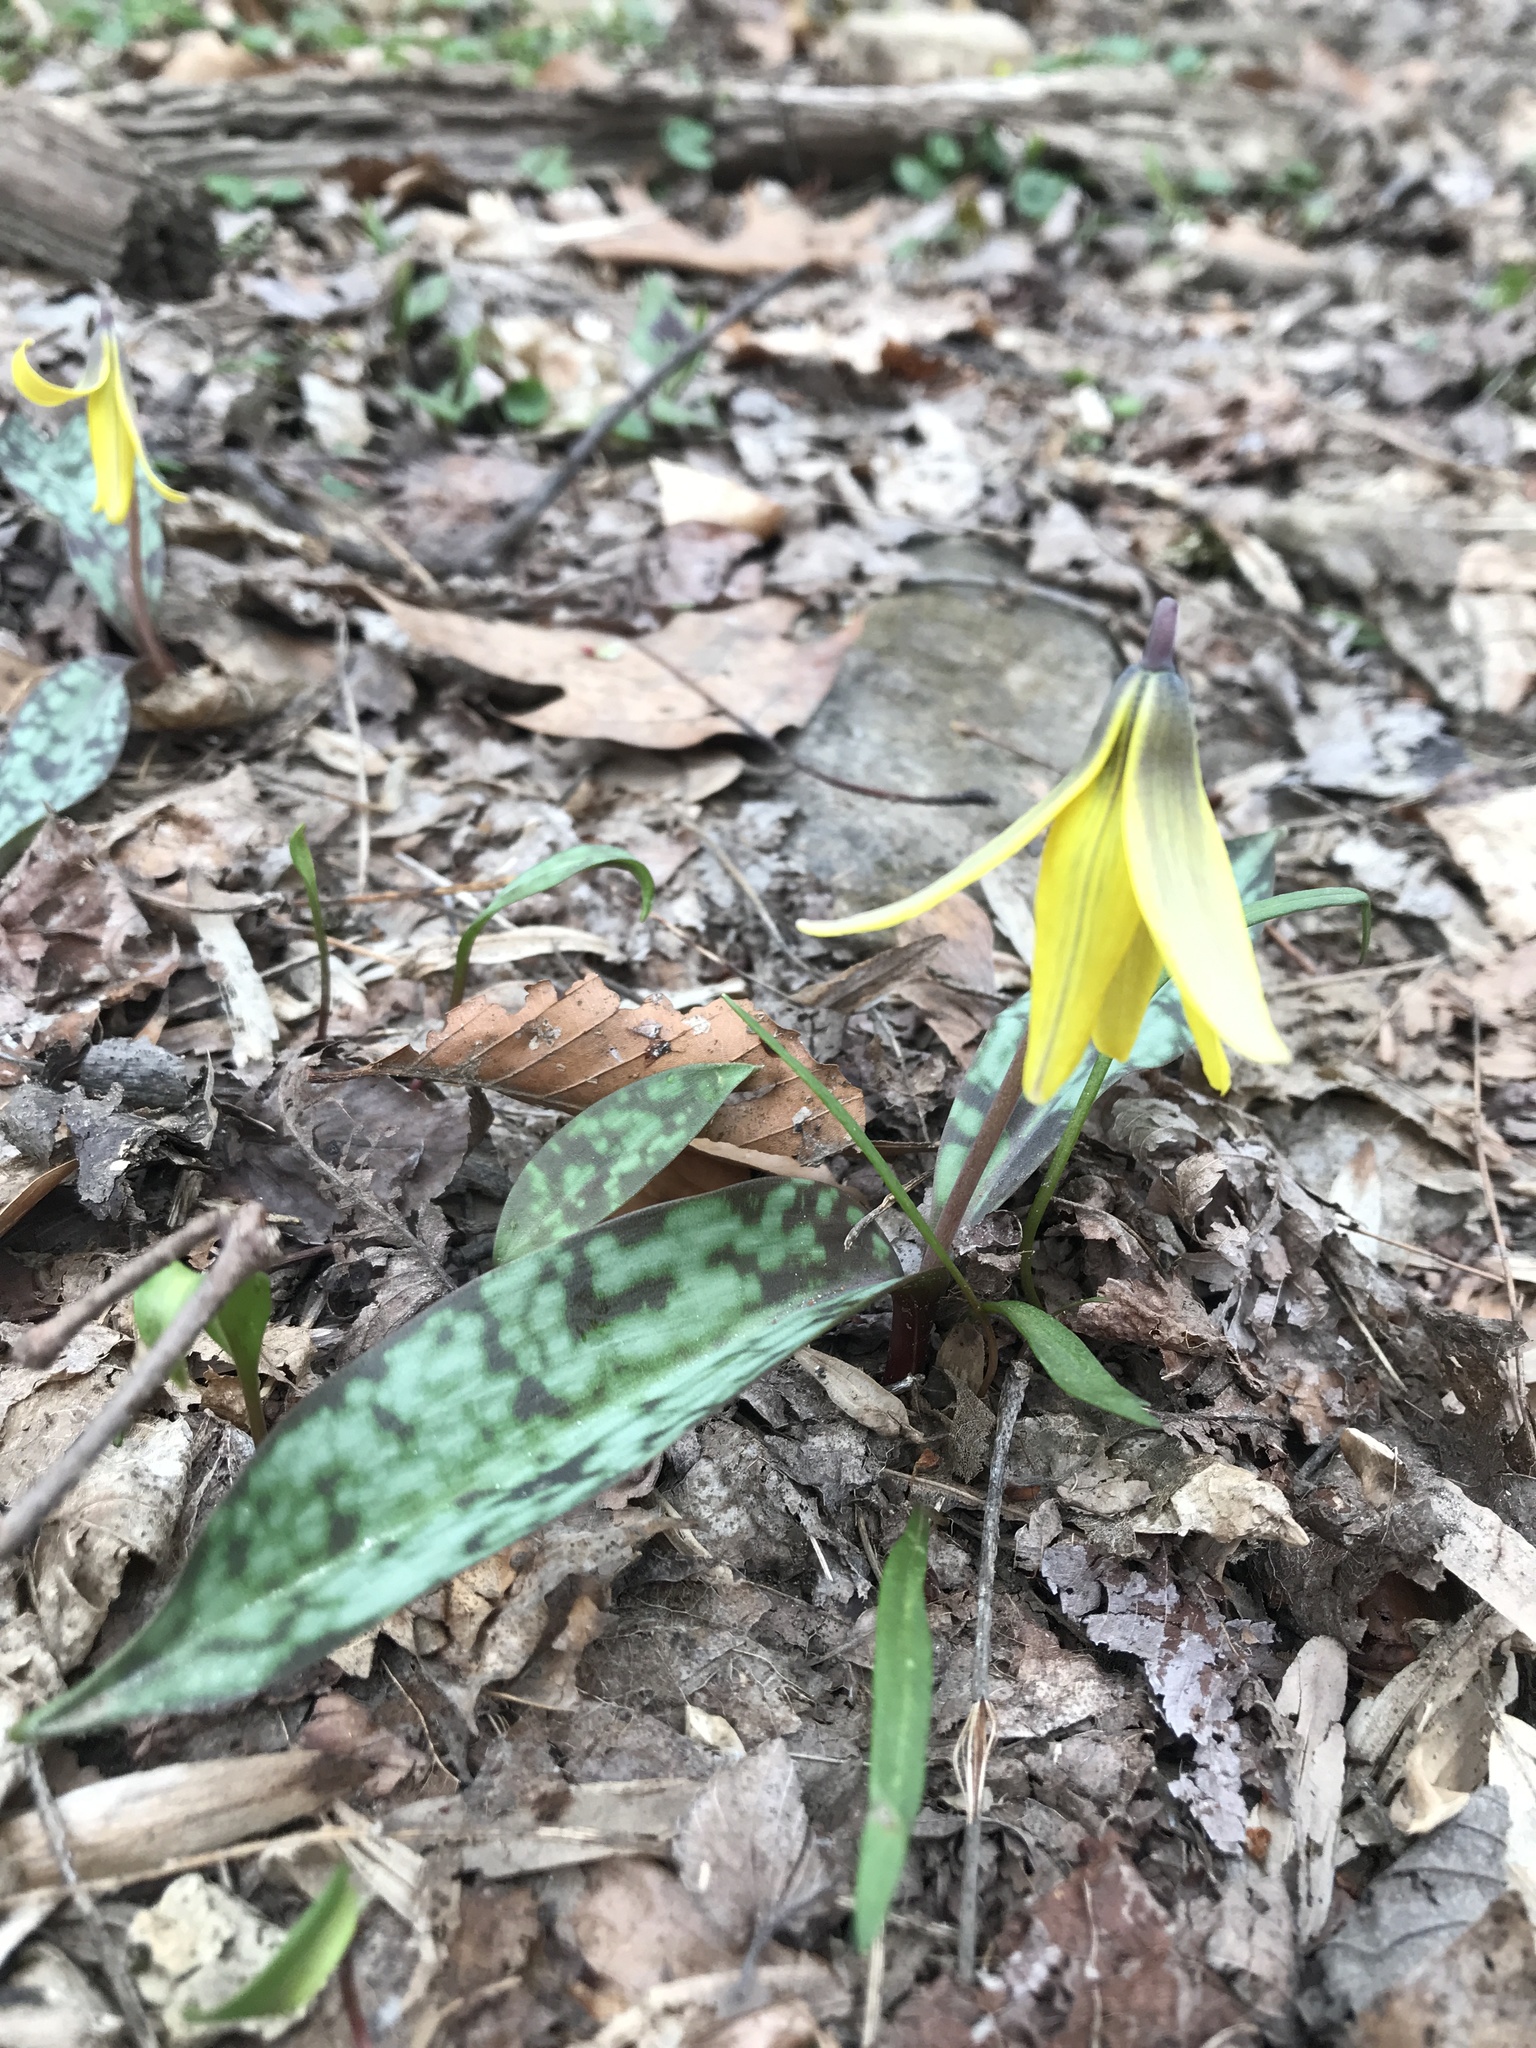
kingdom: Plantae
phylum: Tracheophyta
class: Liliopsida
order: Liliales
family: Liliaceae
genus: Erythronium
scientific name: Erythronium americanum
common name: Yellow adder's-tongue
